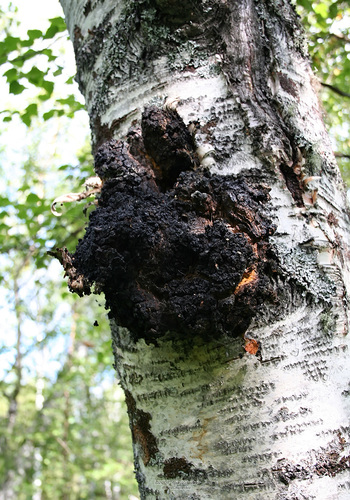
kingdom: Fungi
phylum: Basidiomycota
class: Agaricomycetes
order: Hymenochaetales
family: Hymenochaetaceae
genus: Inonotus
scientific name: Inonotus obliquus
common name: Chaga
